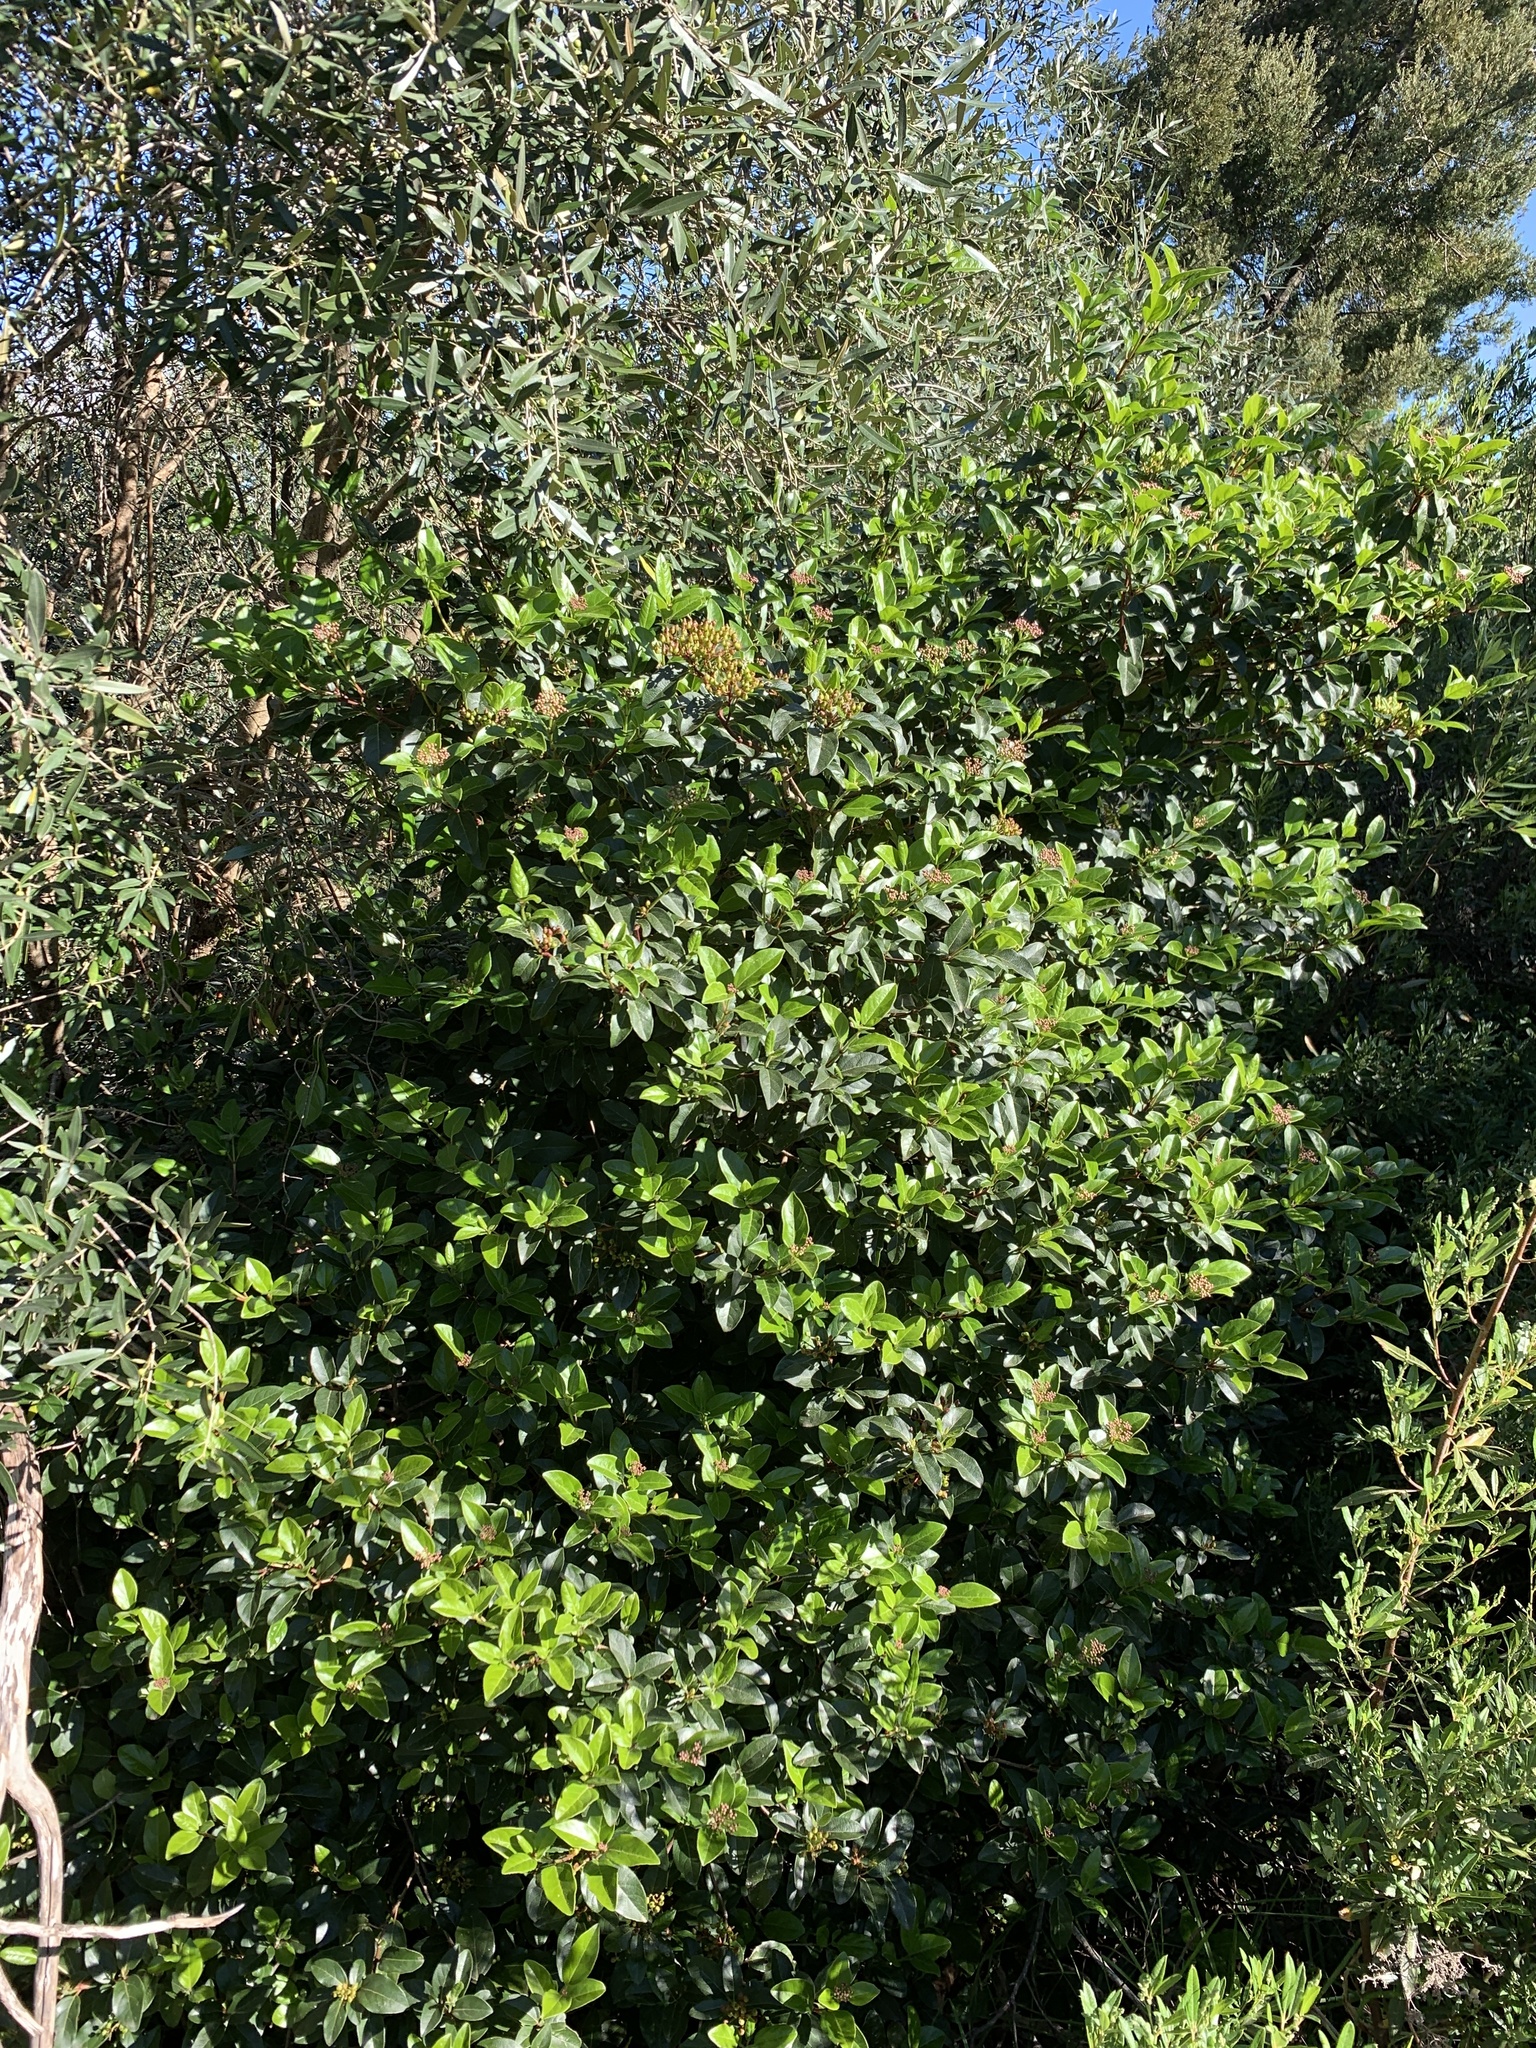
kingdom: Plantae
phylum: Tracheophyta
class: Magnoliopsida
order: Dipsacales
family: Viburnaceae
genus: Viburnum
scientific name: Viburnum tinus
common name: Laurustinus
